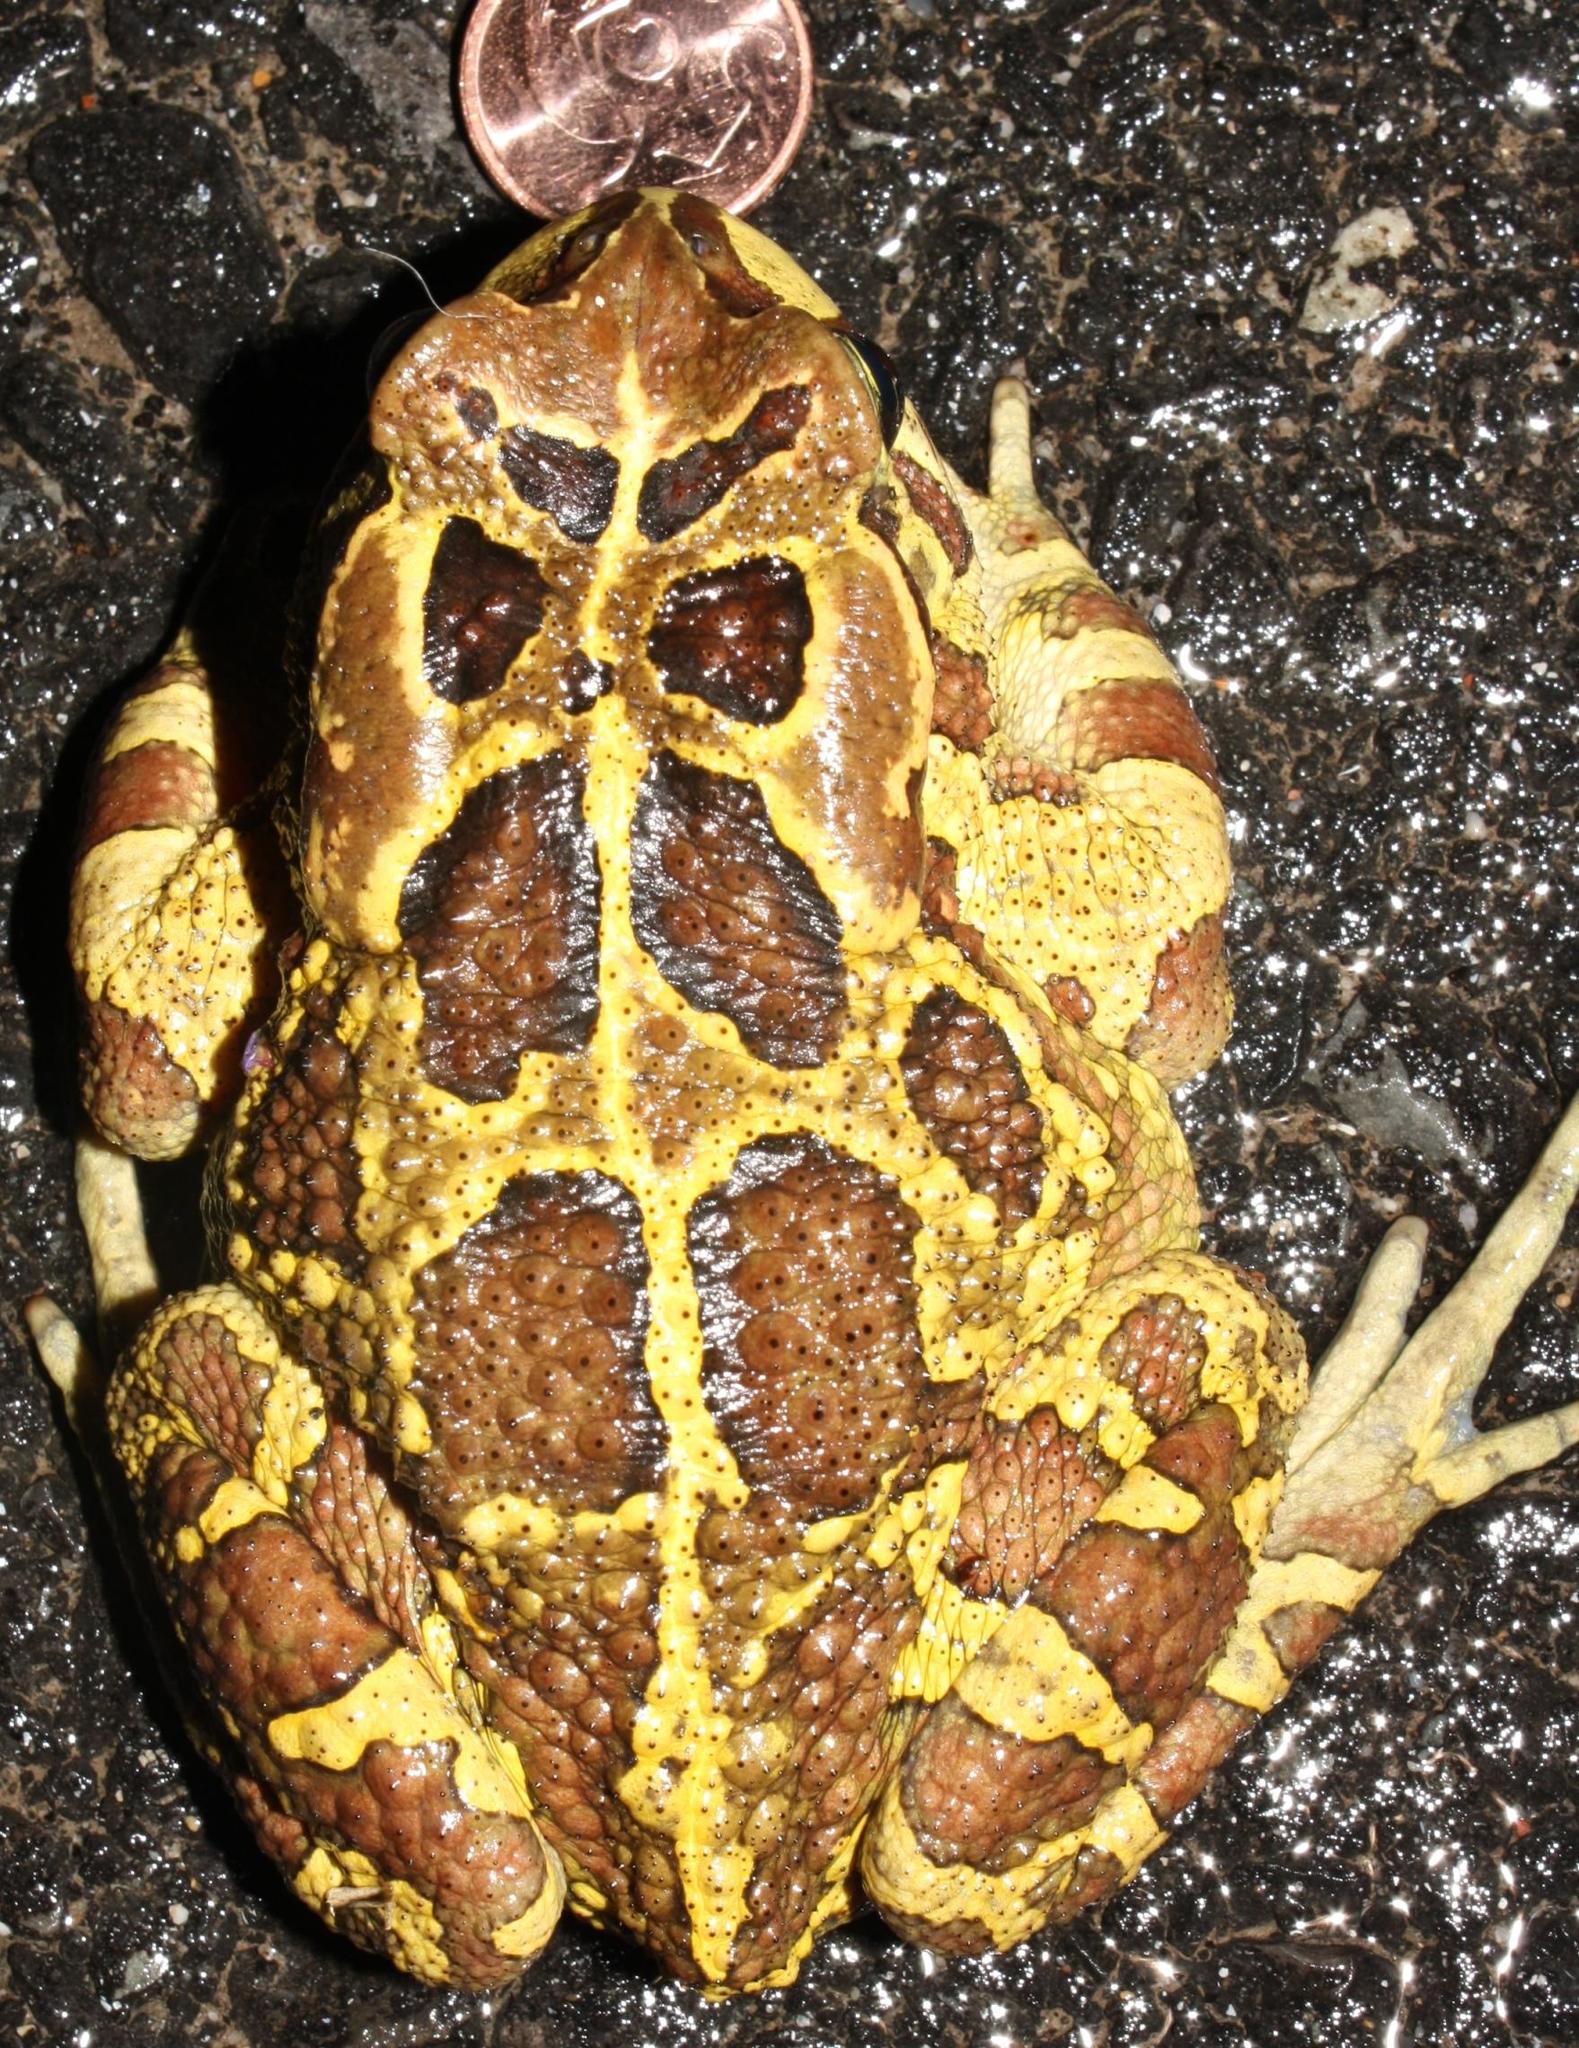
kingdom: Animalia
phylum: Chordata
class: Amphibia
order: Anura
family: Bufonidae
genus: Sclerophrys
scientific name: Sclerophrys pantherina
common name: Panther toad
